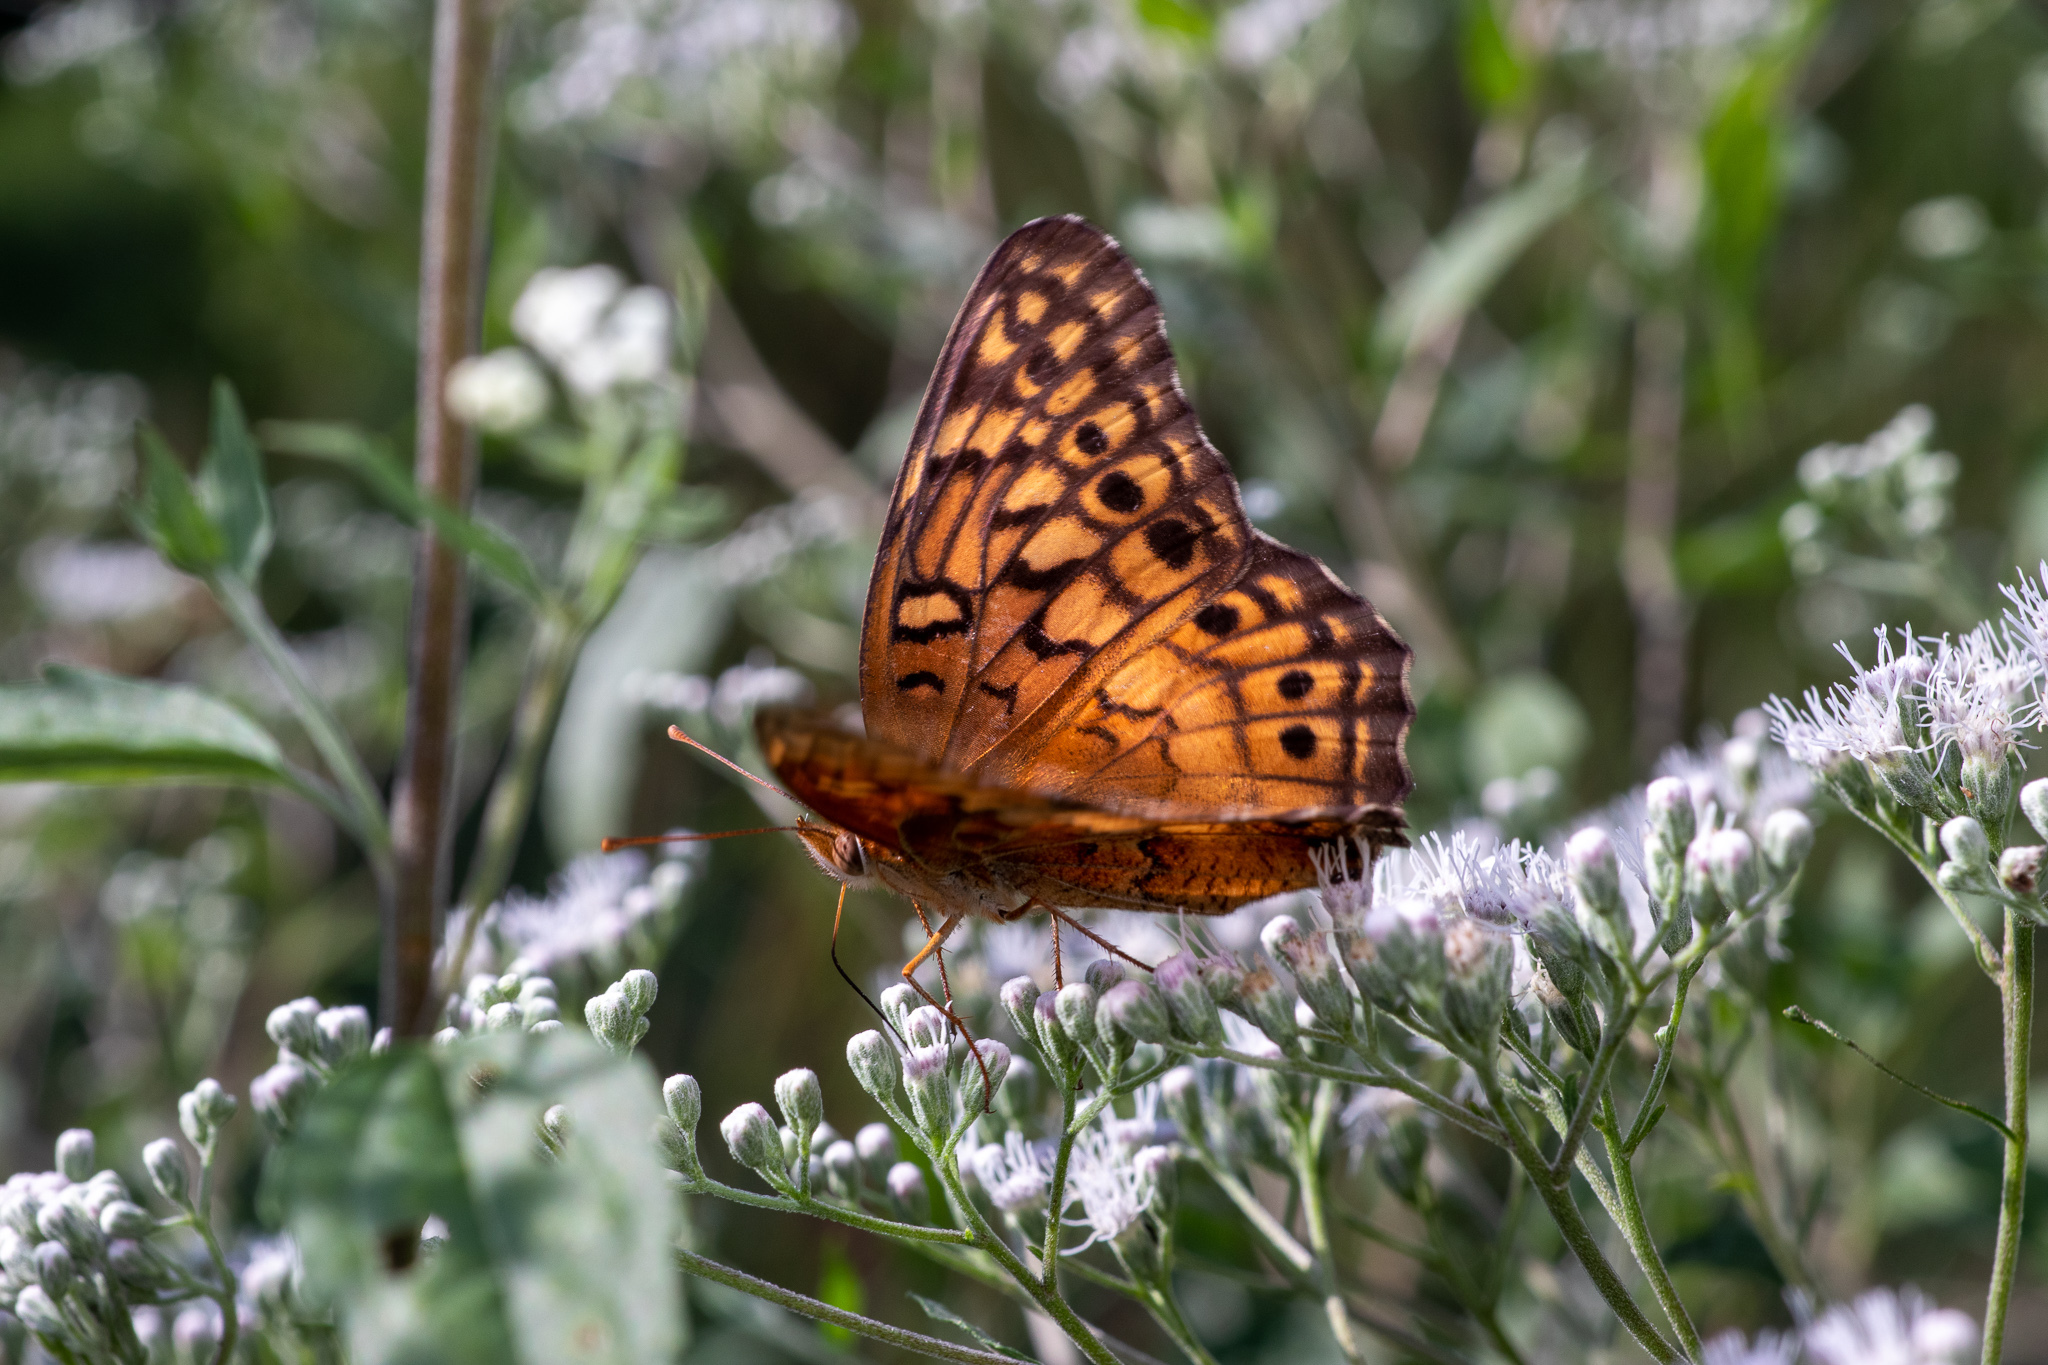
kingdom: Animalia
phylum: Arthropoda
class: Insecta
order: Lepidoptera
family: Nymphalidae
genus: Euptoieta
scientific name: Euptoieta claudia
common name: Variegated fritillary
